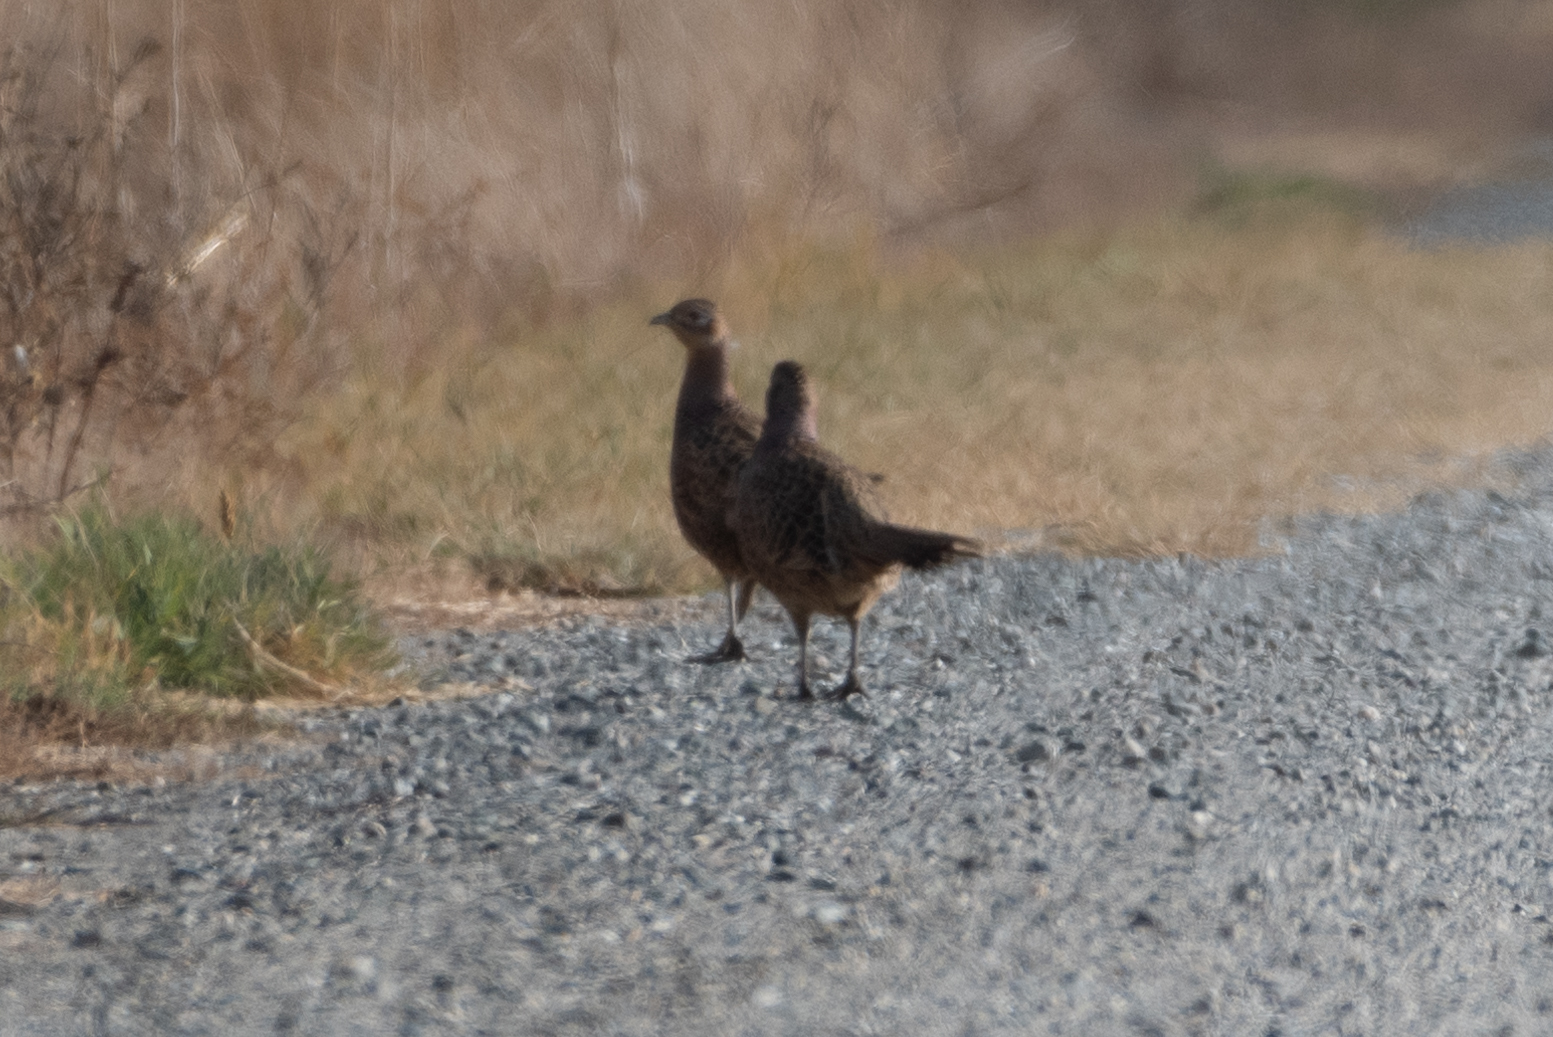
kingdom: Animalia
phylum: Chordata
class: Aves
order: Galliformes
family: Phasianidae
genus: Phasianus
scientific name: Phasianus colchicus
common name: Common pheasant
